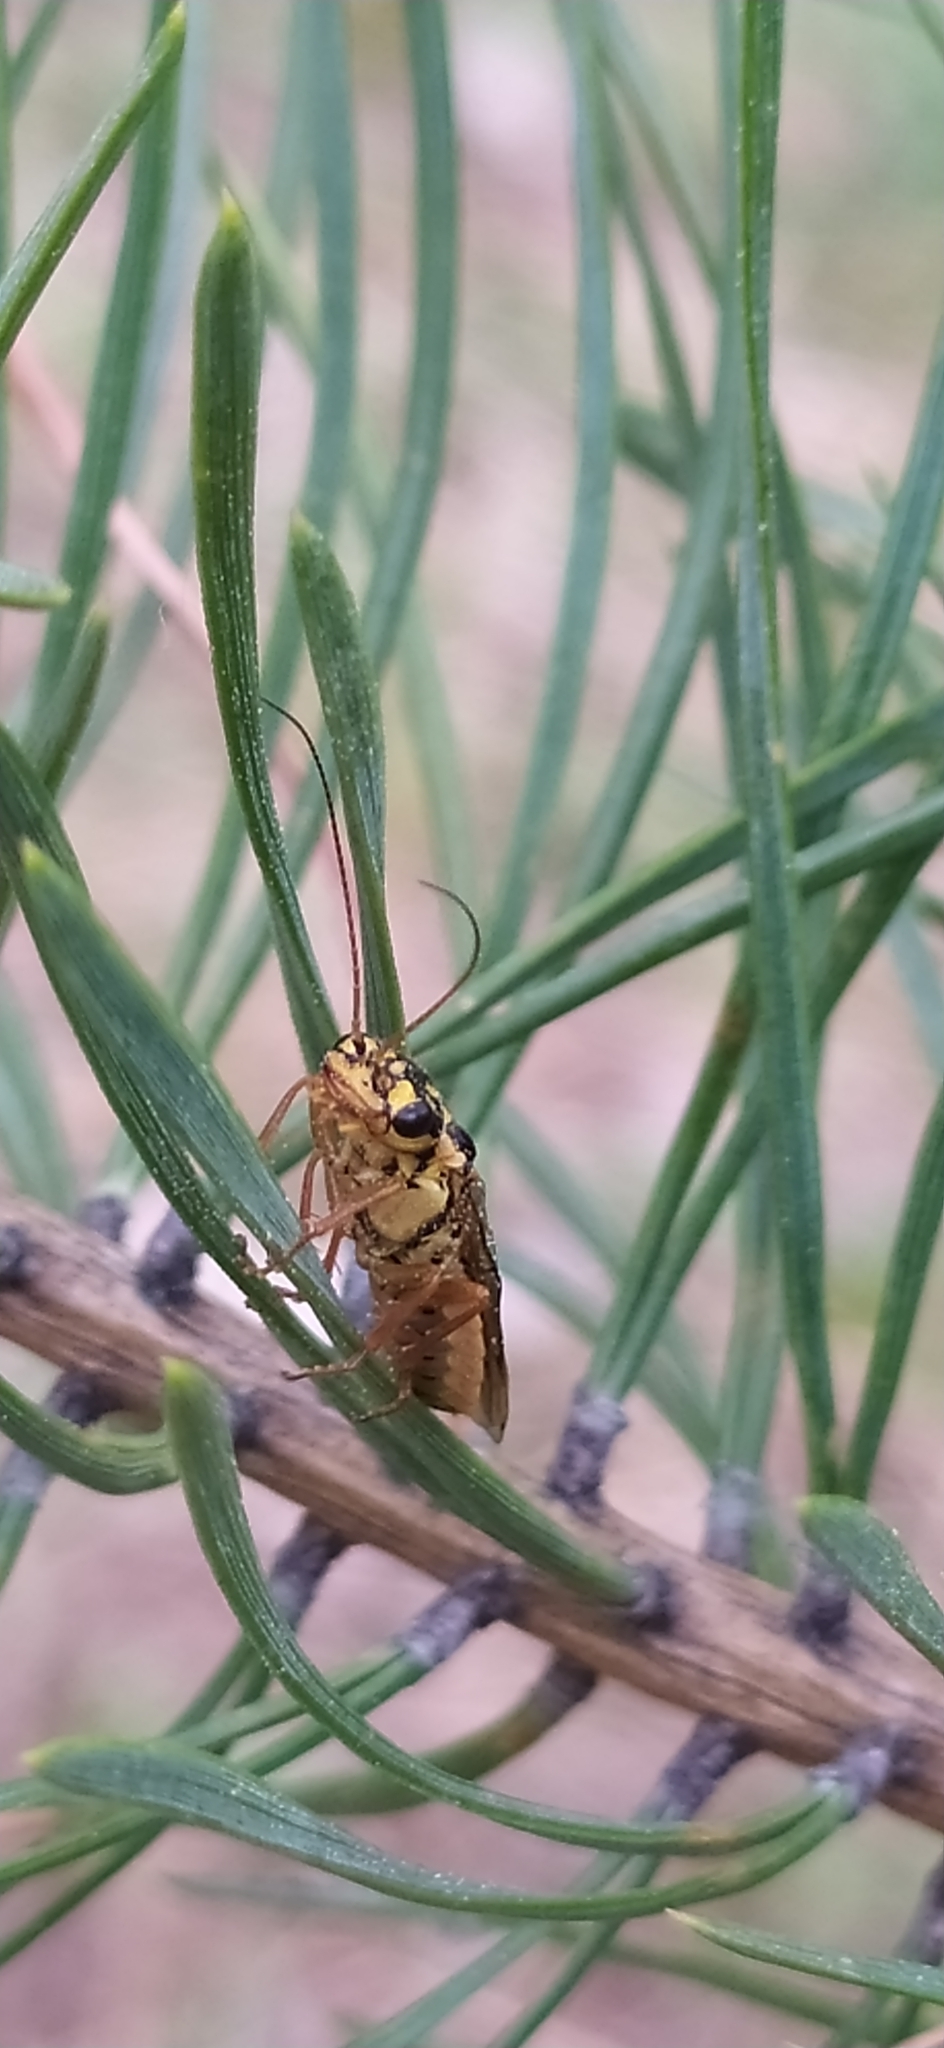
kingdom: Animalia
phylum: Arthropoda
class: Insecta
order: Hymenoptera
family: Pamphiliidae
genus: Acantholyda
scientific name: Acantholyda posticalis
